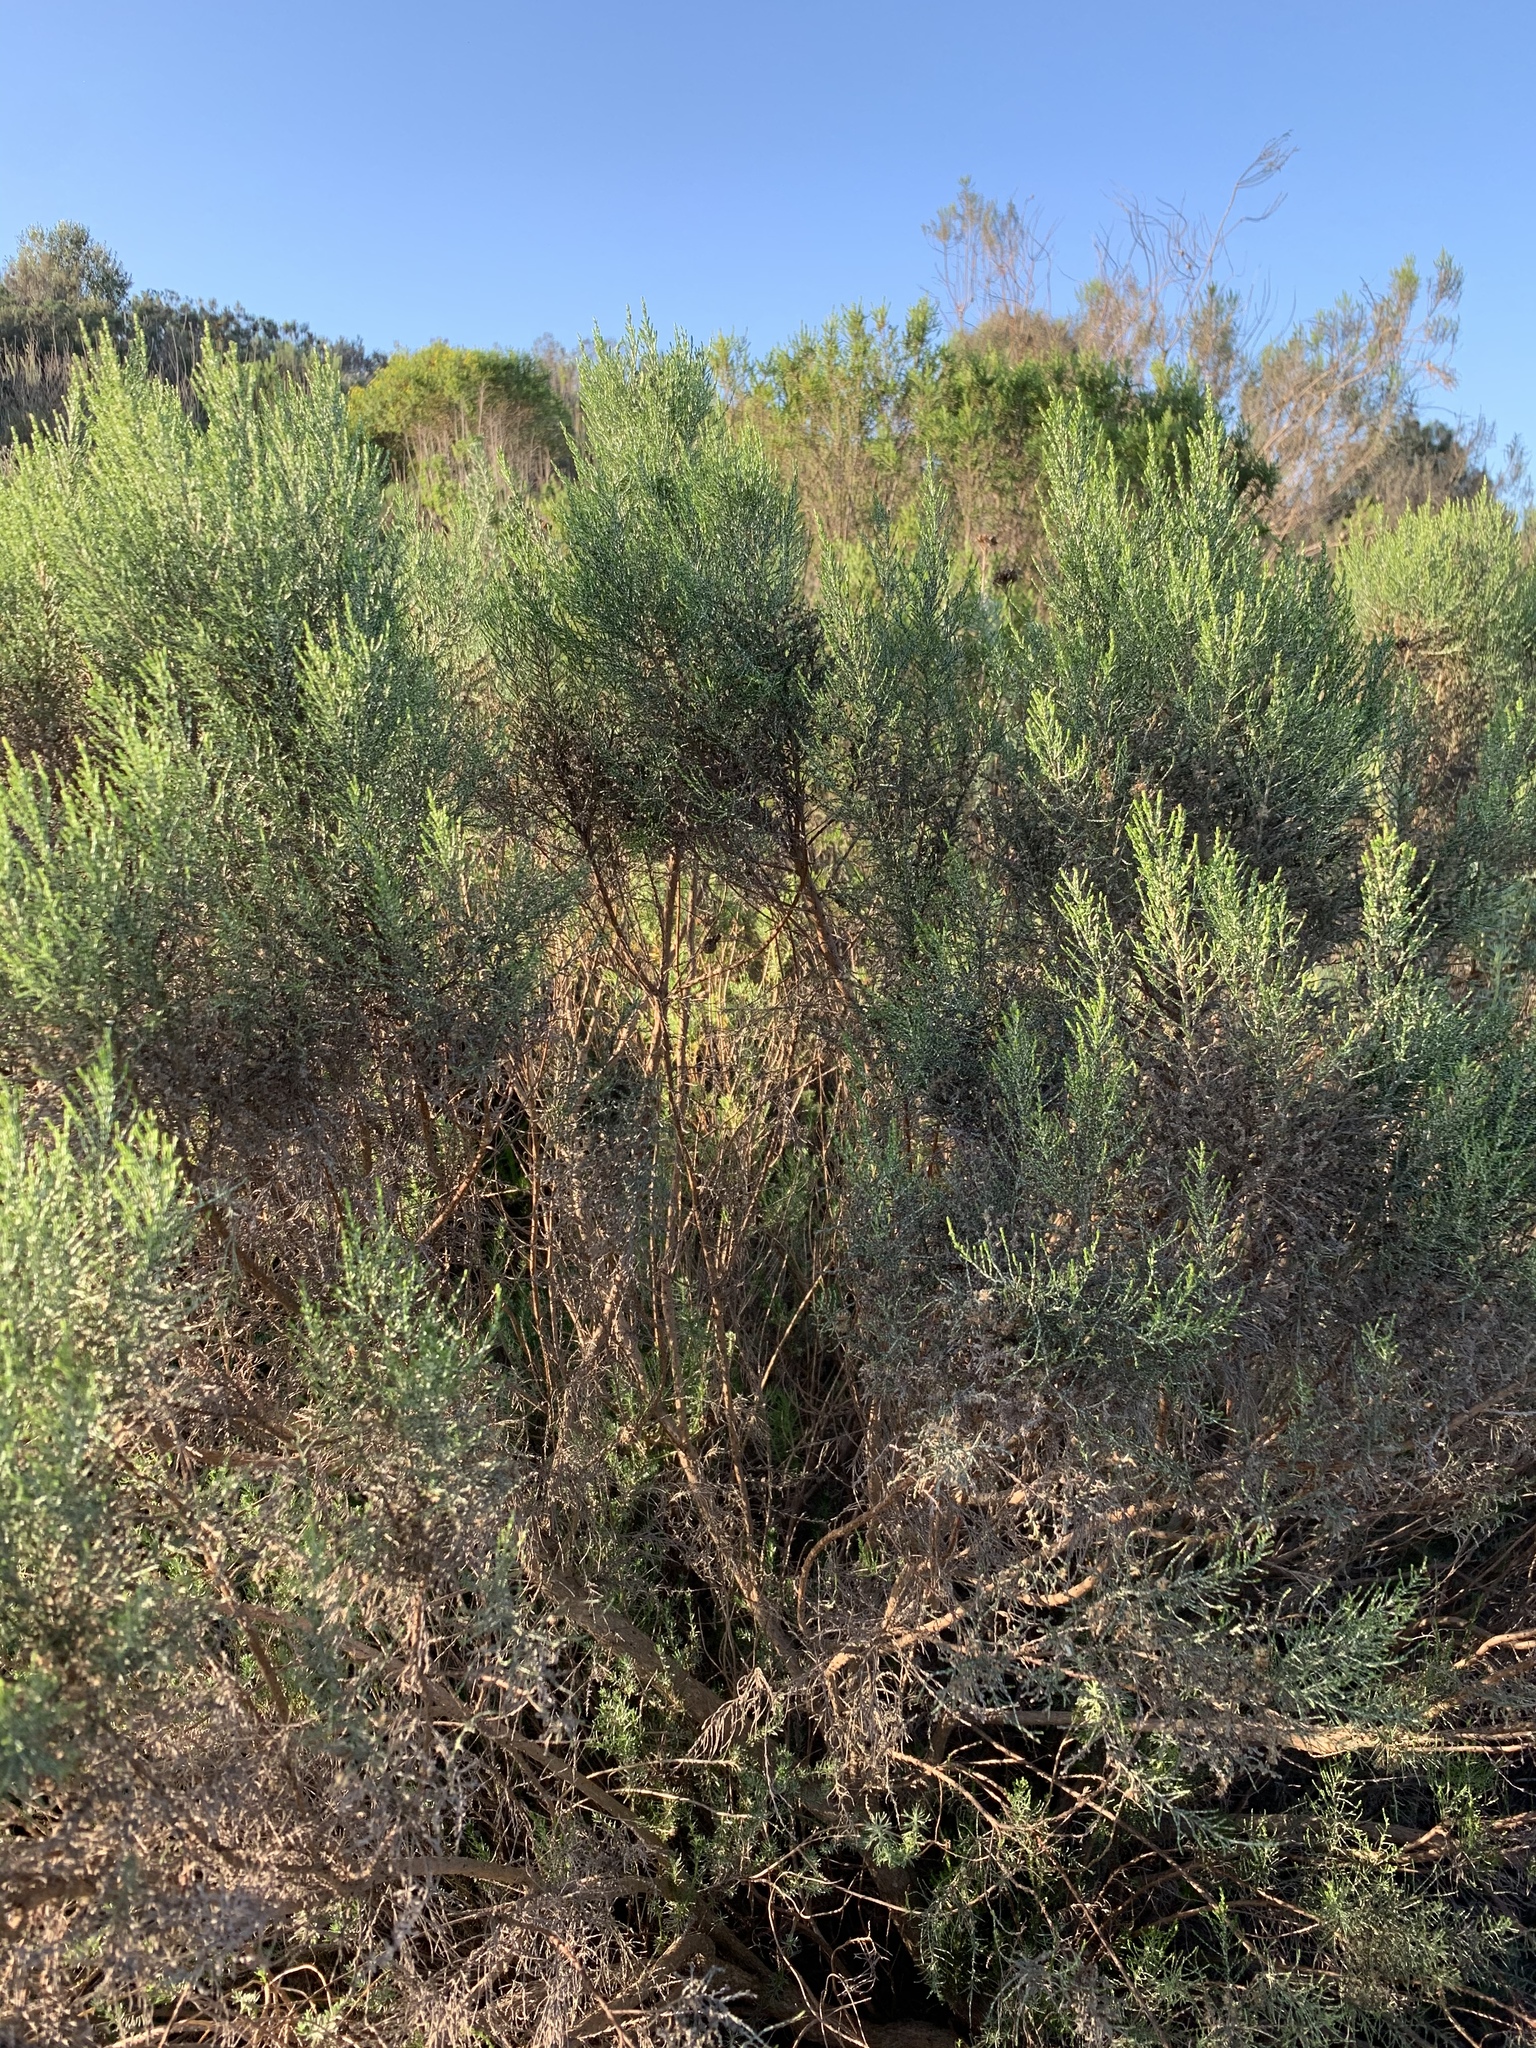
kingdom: Plantae
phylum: Tracheophyta
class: Magnoliopsida
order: Asterales
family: Asteraceae
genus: Dicerothamnus
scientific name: Dicerothamnus rhinocerotis
